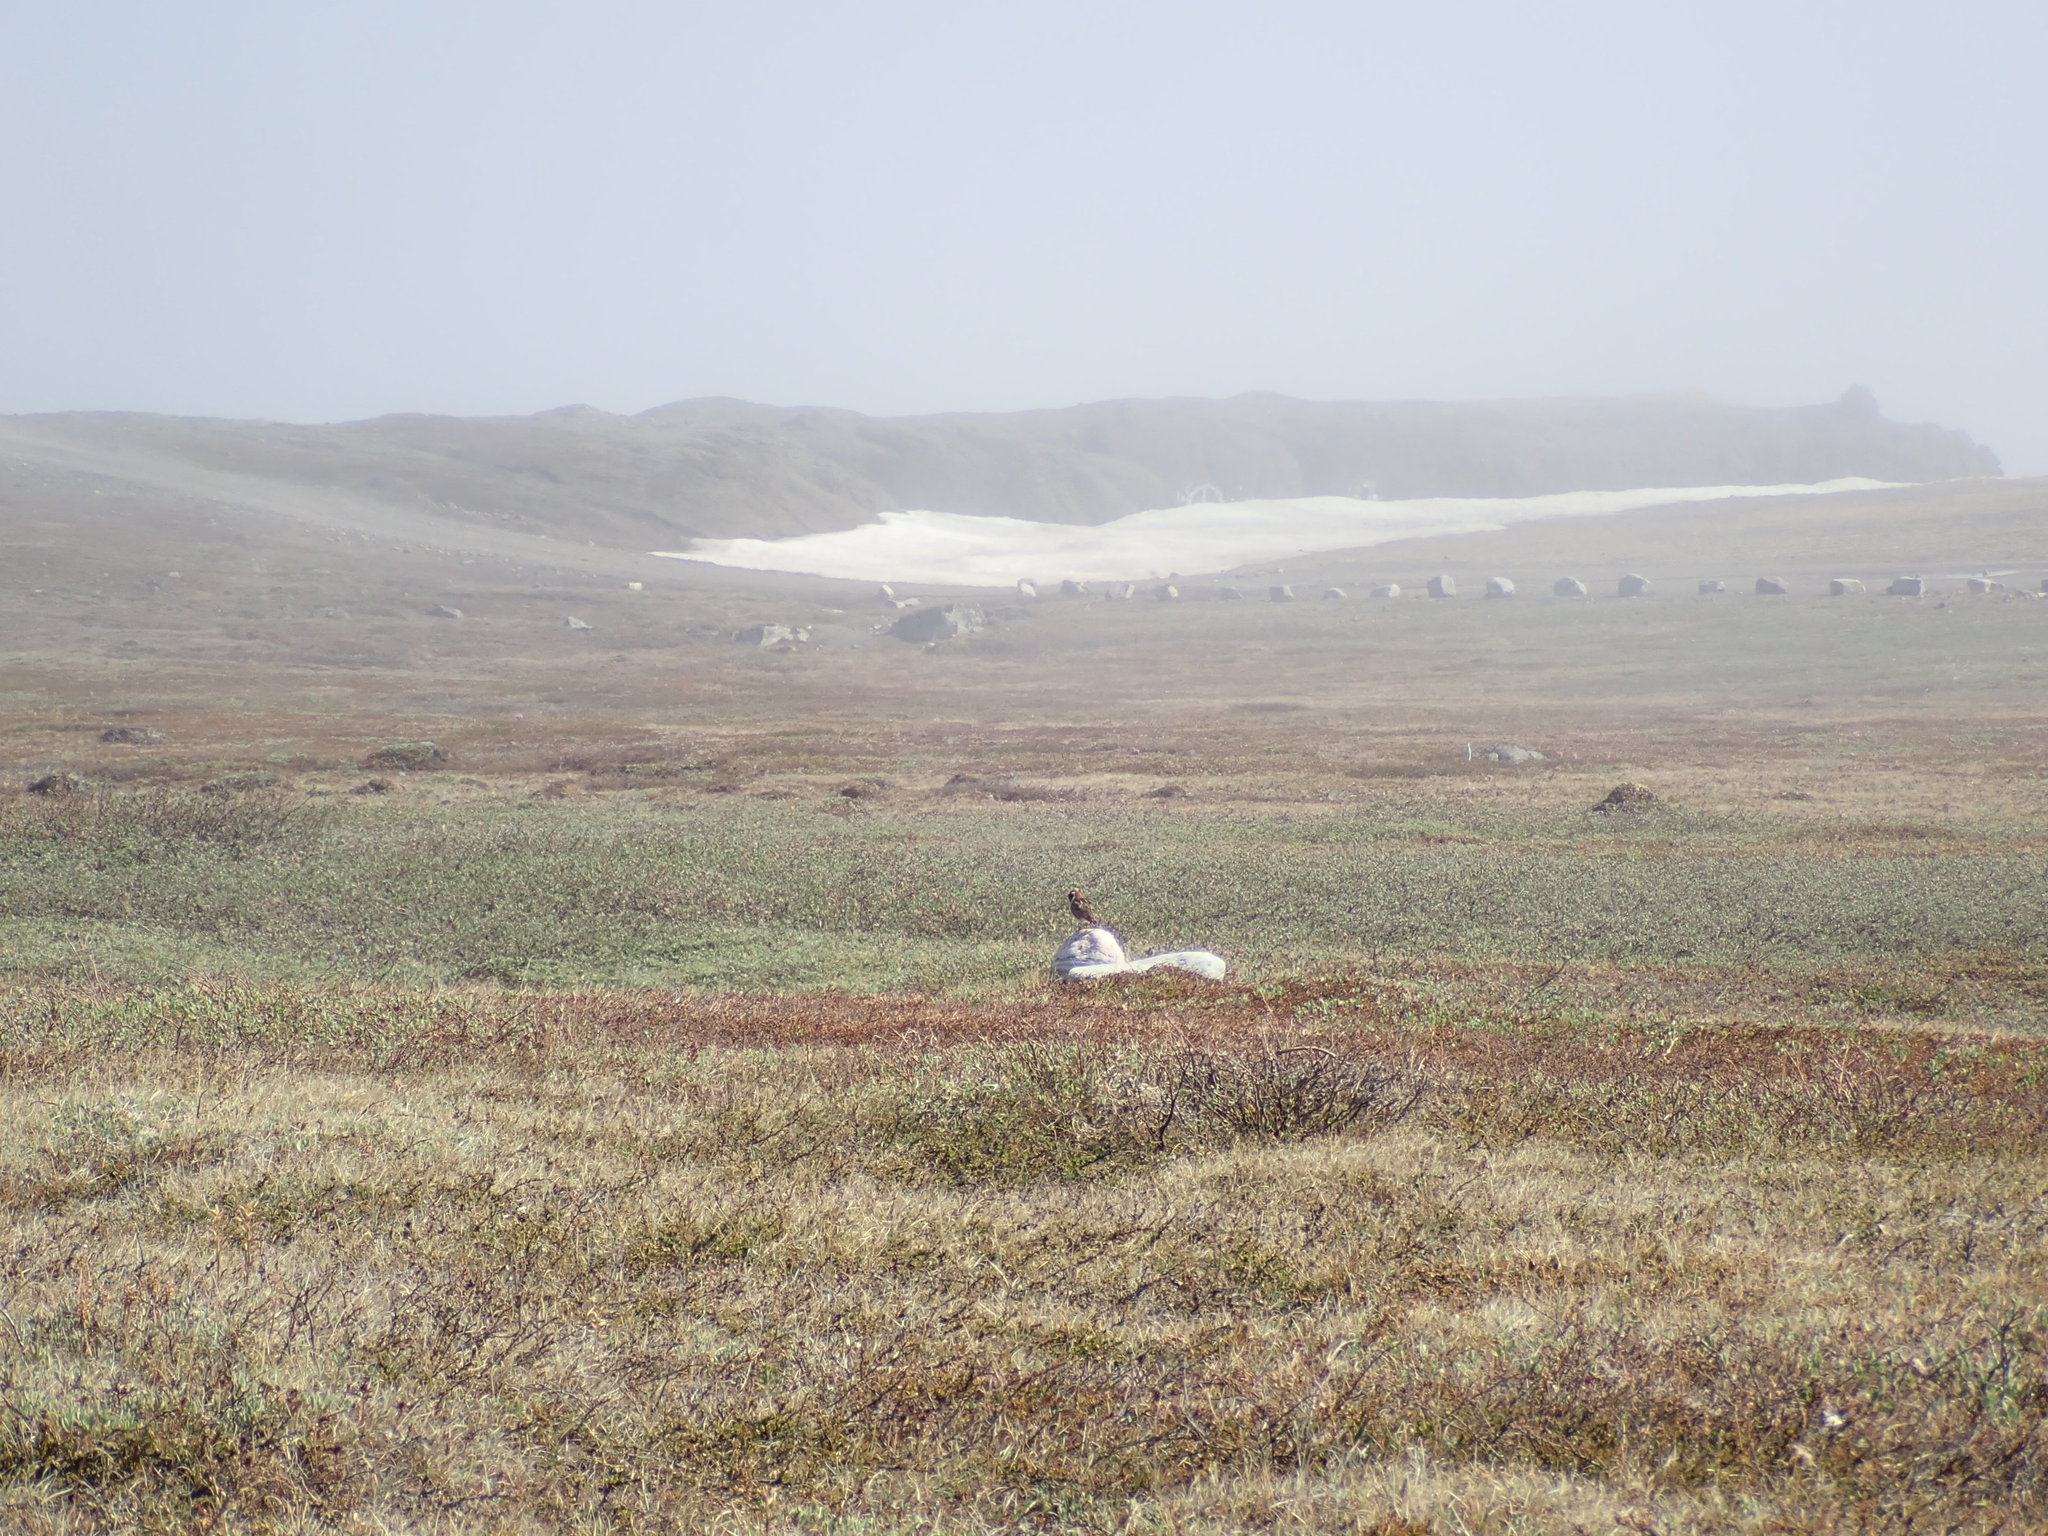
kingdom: Animalia
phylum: Chordata
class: Aves
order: Passeriformes
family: Calcariidae
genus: Calcarius
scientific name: Calcarius lapponicus
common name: Lapland longspur
